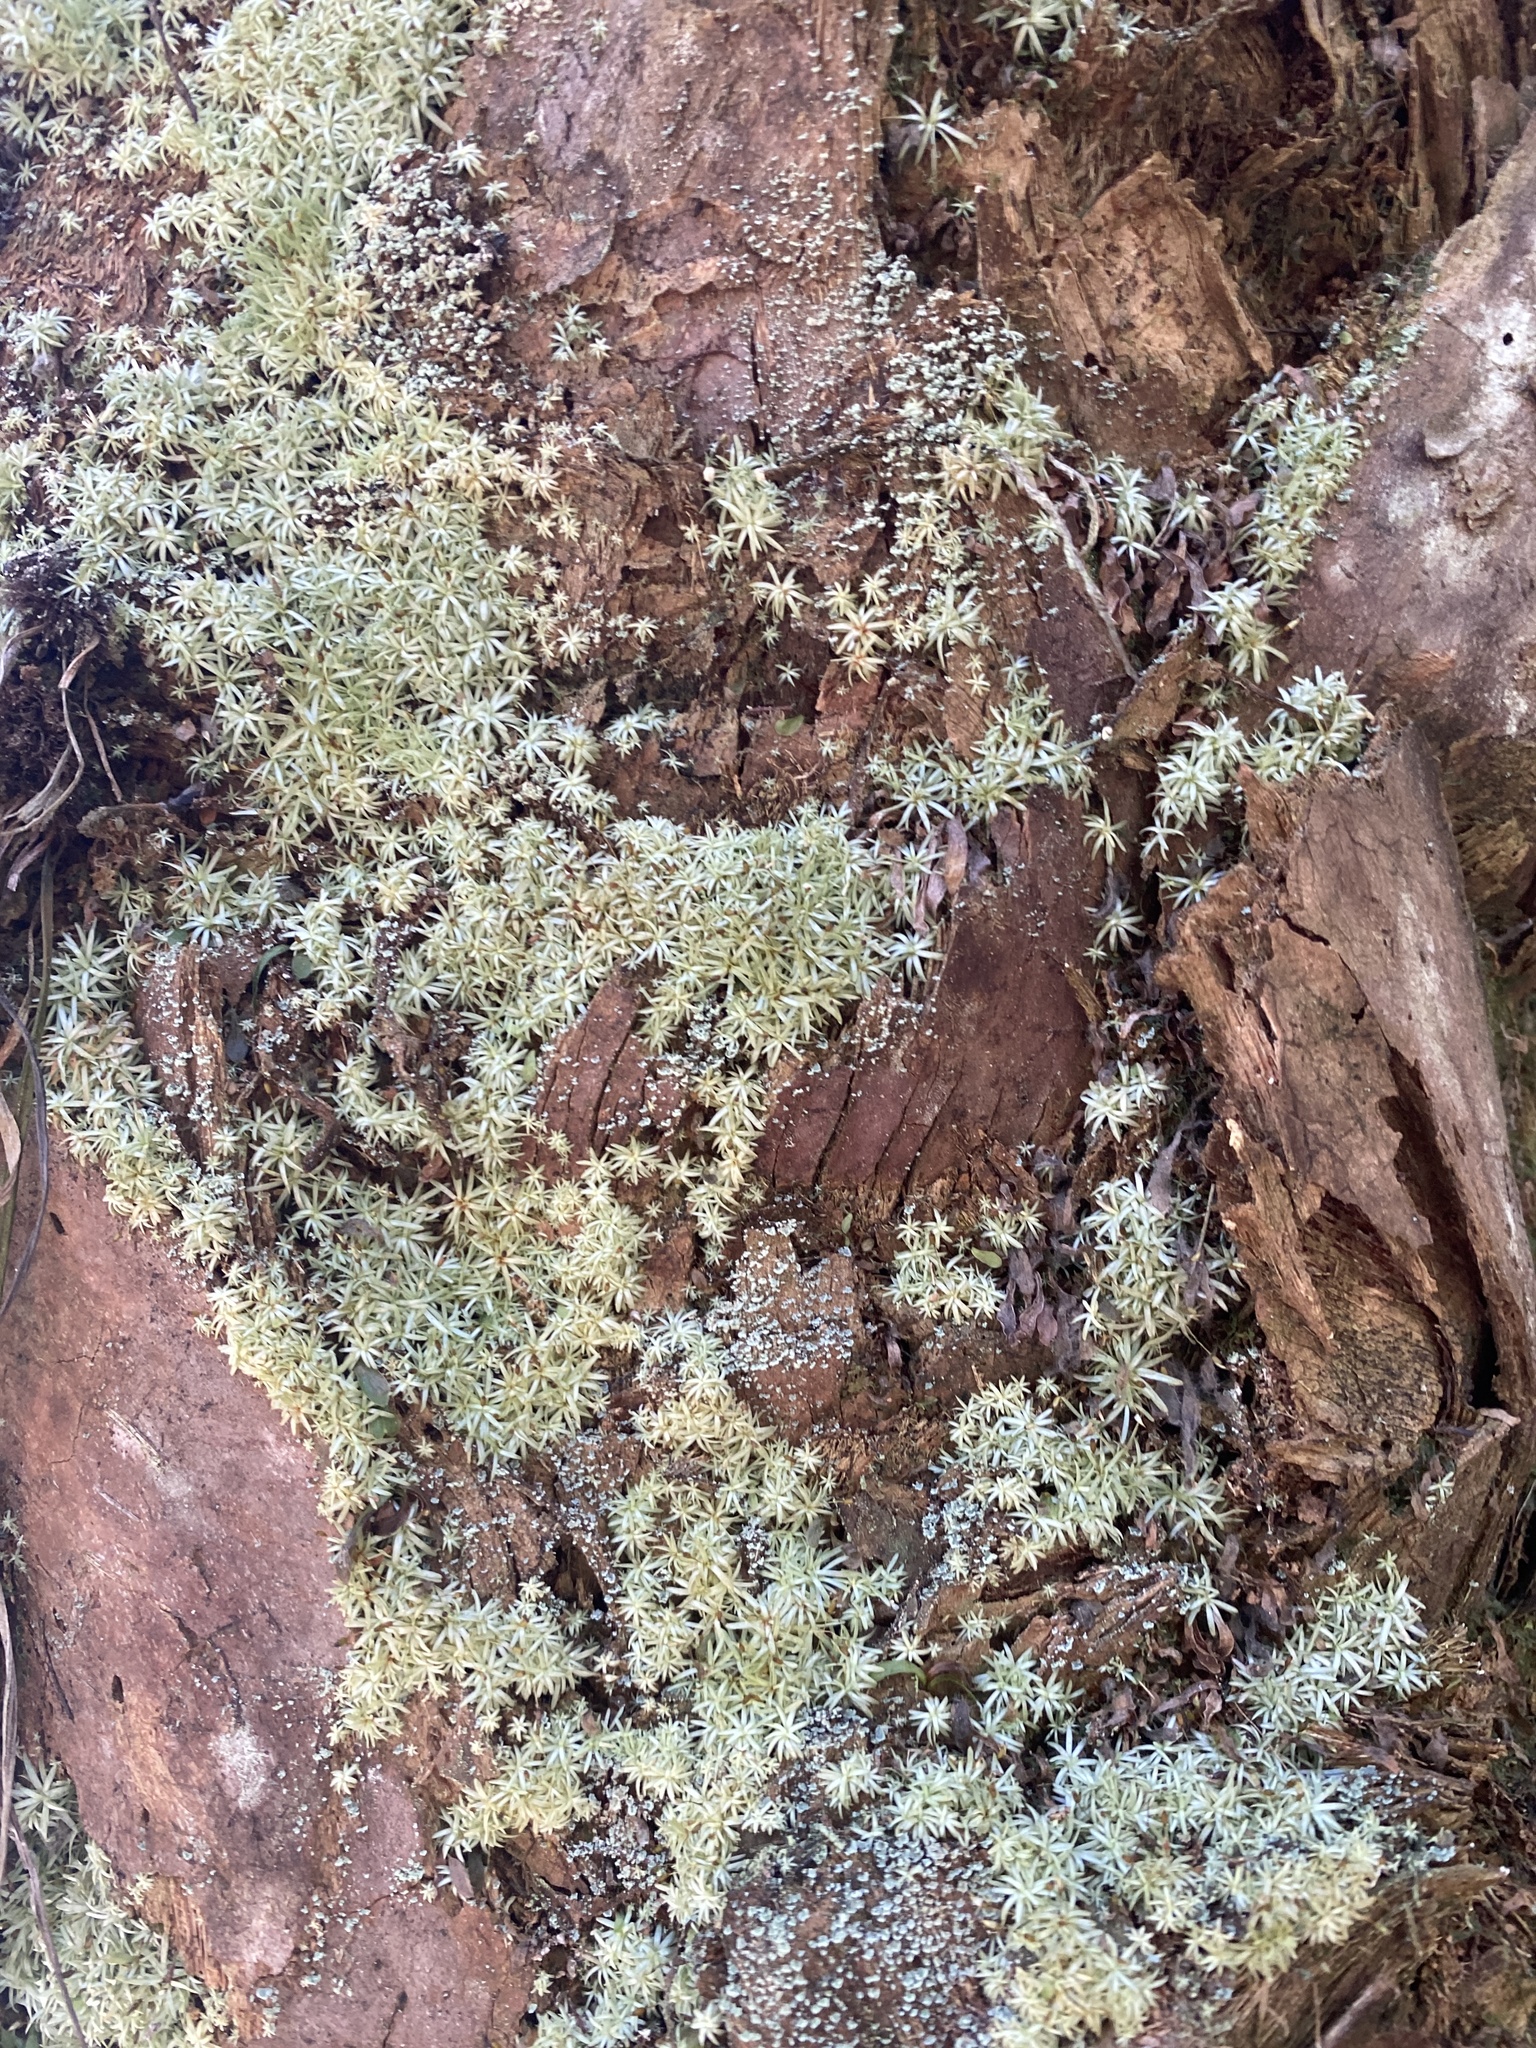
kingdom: Plantae
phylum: Bryophyta
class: Bryopsida
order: Dicranales
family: Octoblepharaceae
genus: Octoblepharum
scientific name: Octoblepharum albidum
